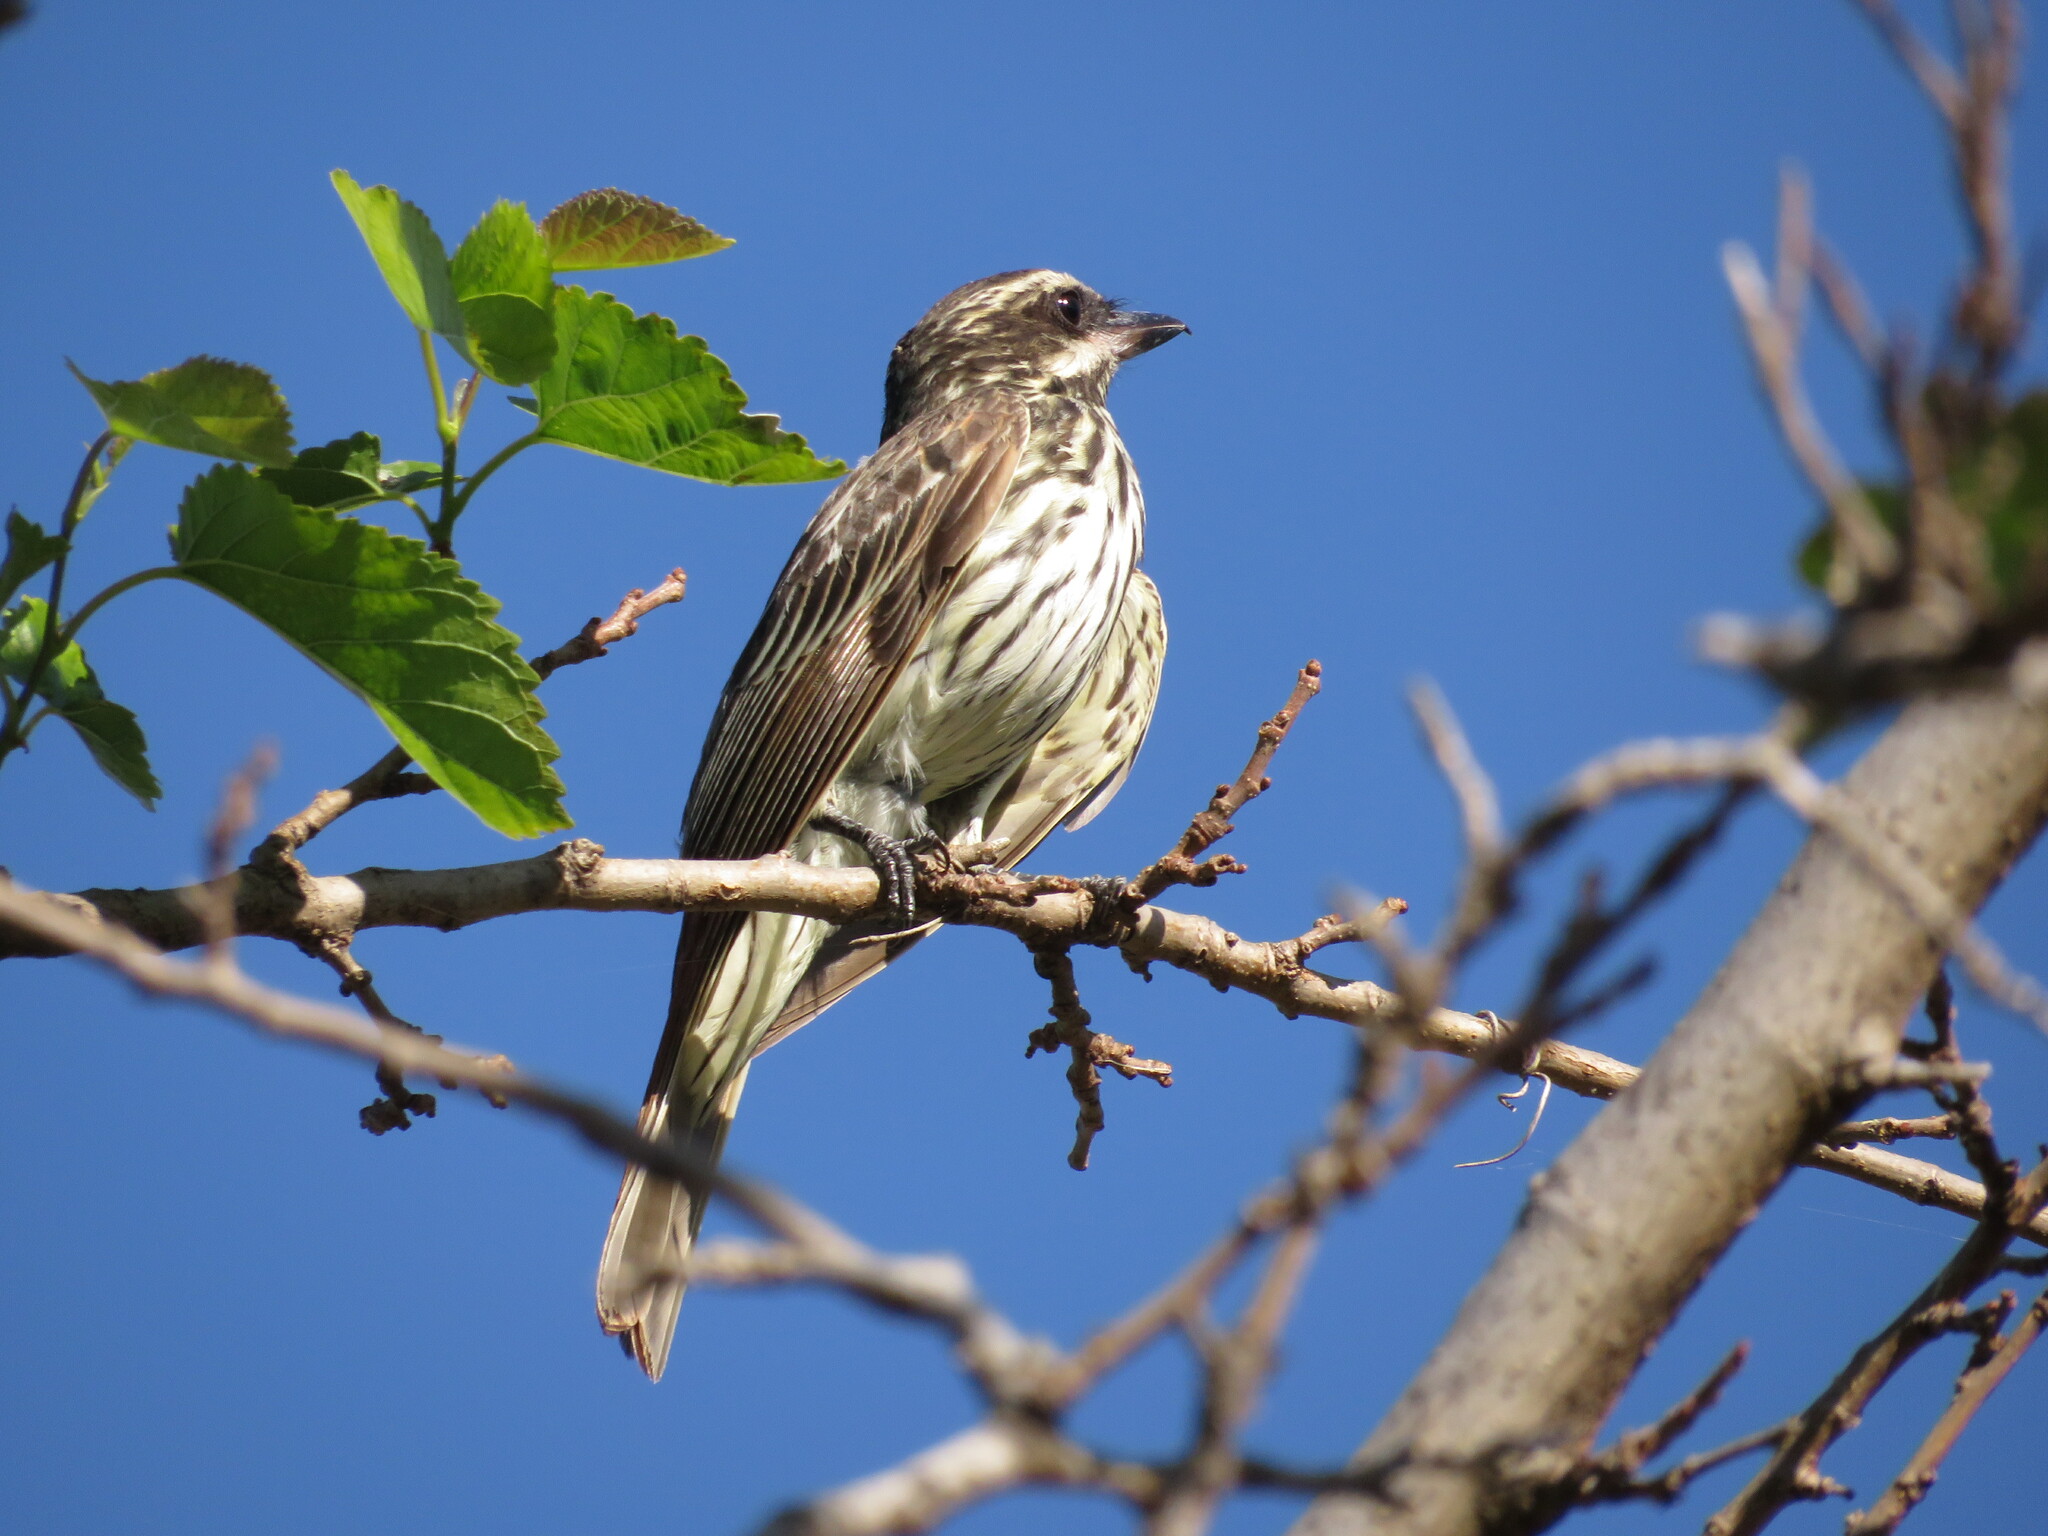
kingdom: Animalia
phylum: Chordata
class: Aves
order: Passeriformes
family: Tyrannidae
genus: Myiodynastes
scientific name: Myiodynastes maculatus
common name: Streaked flycatcher
